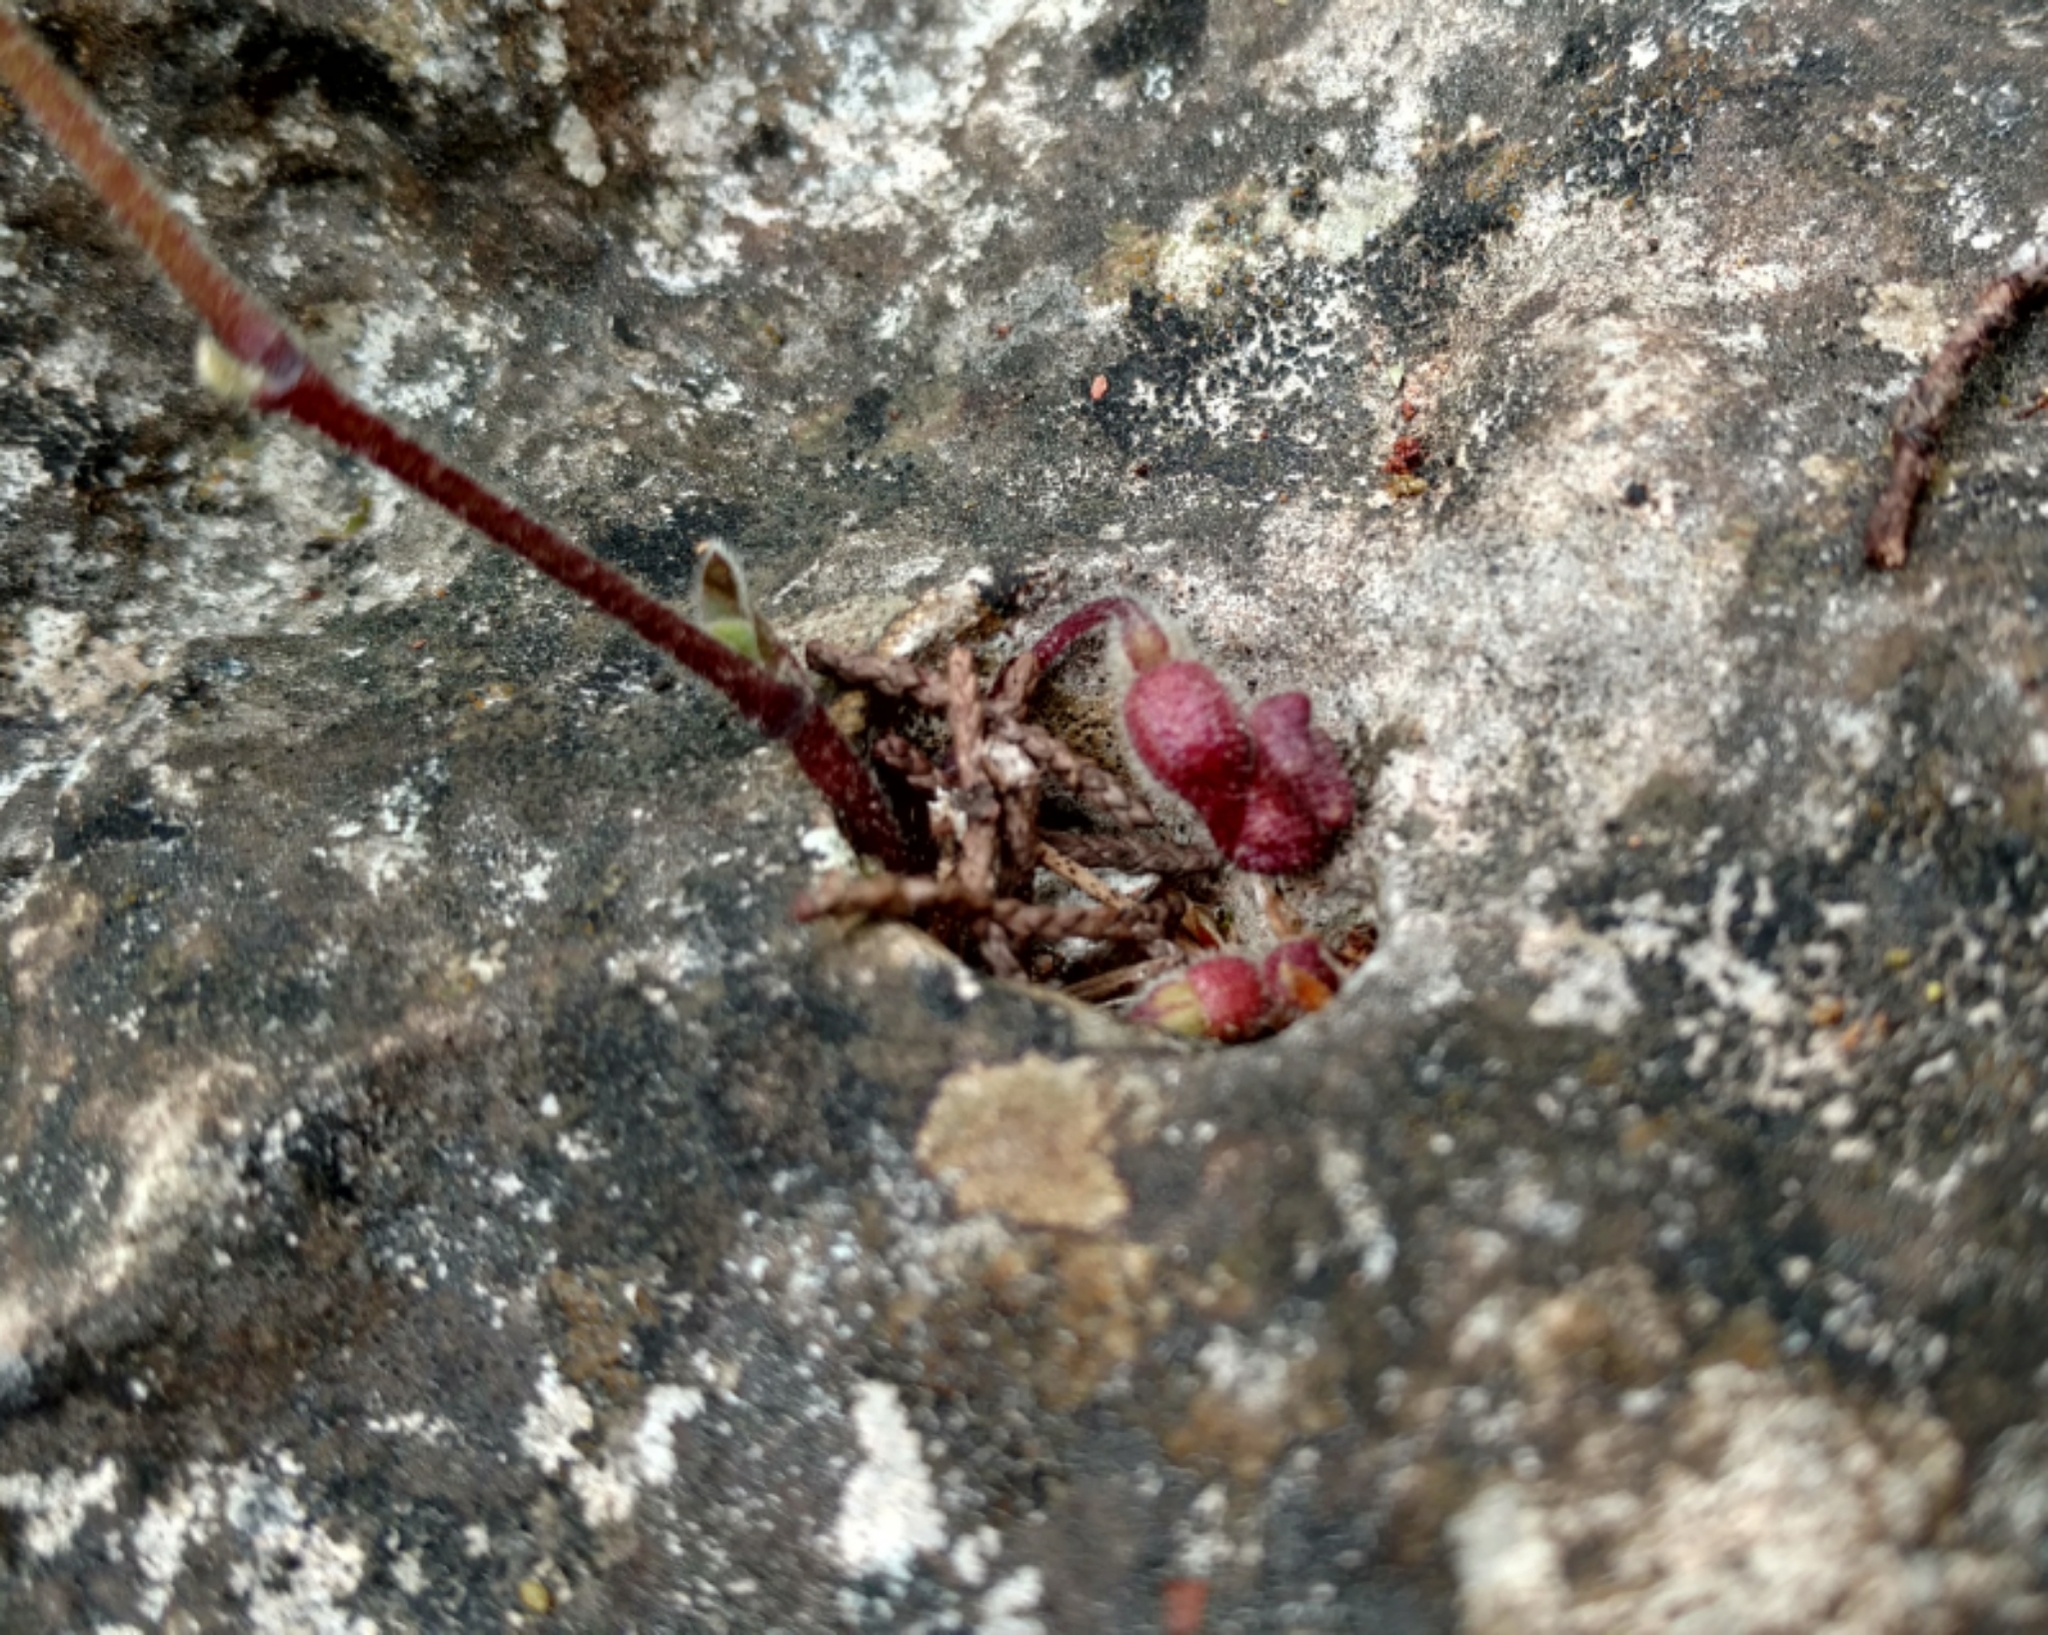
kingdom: Plantae
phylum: Tracheophyta
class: Magnoliopsida
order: Piperales
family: Aristolochiaceae
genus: Endodeca
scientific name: Endodeca serpentaria
